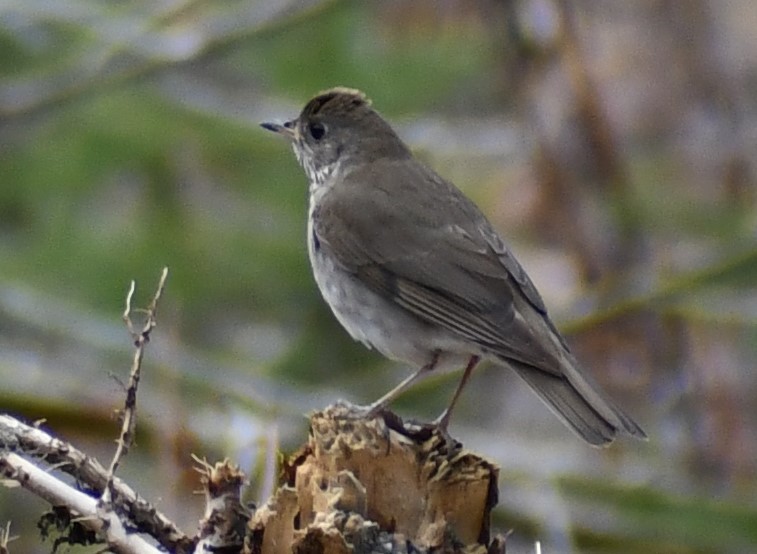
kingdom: Animalia
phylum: Chordata
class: Aves
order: Passeriformes
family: Turdidae
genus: Catharus
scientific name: Catharus minimus
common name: Grey-cheeked thrush
